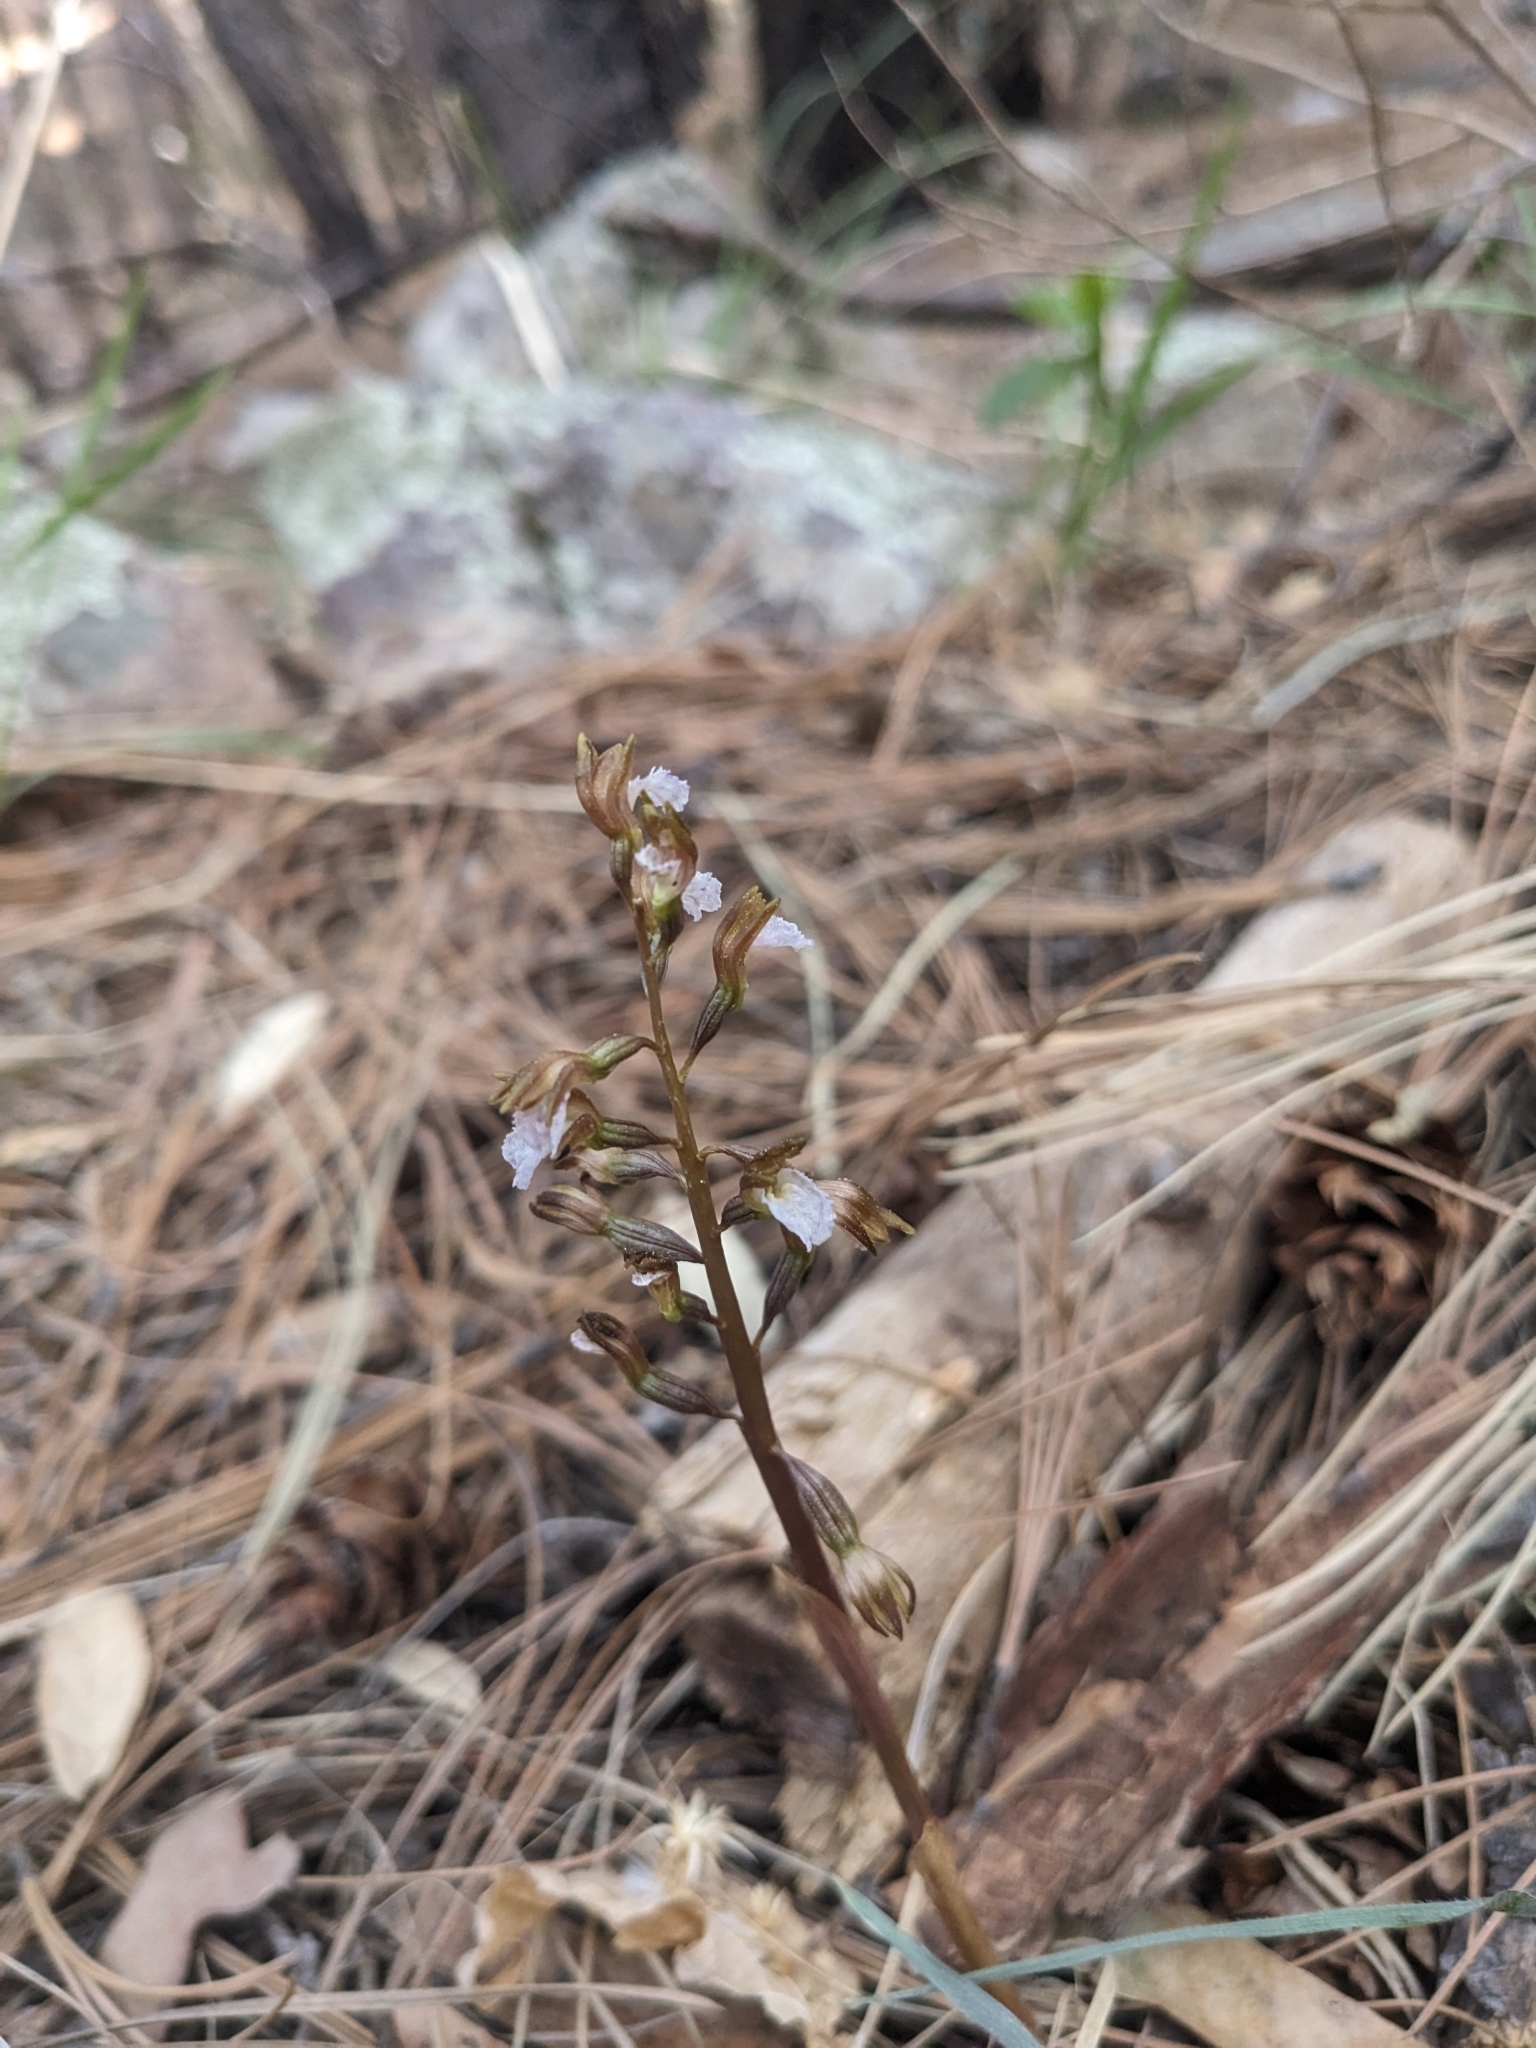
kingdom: Plantae
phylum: Tracheophyta
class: Liliopsida
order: Asparagales
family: Orchidaceae
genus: Corallorhiza
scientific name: Corallorhiza wisteriana
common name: Spring coralroot
